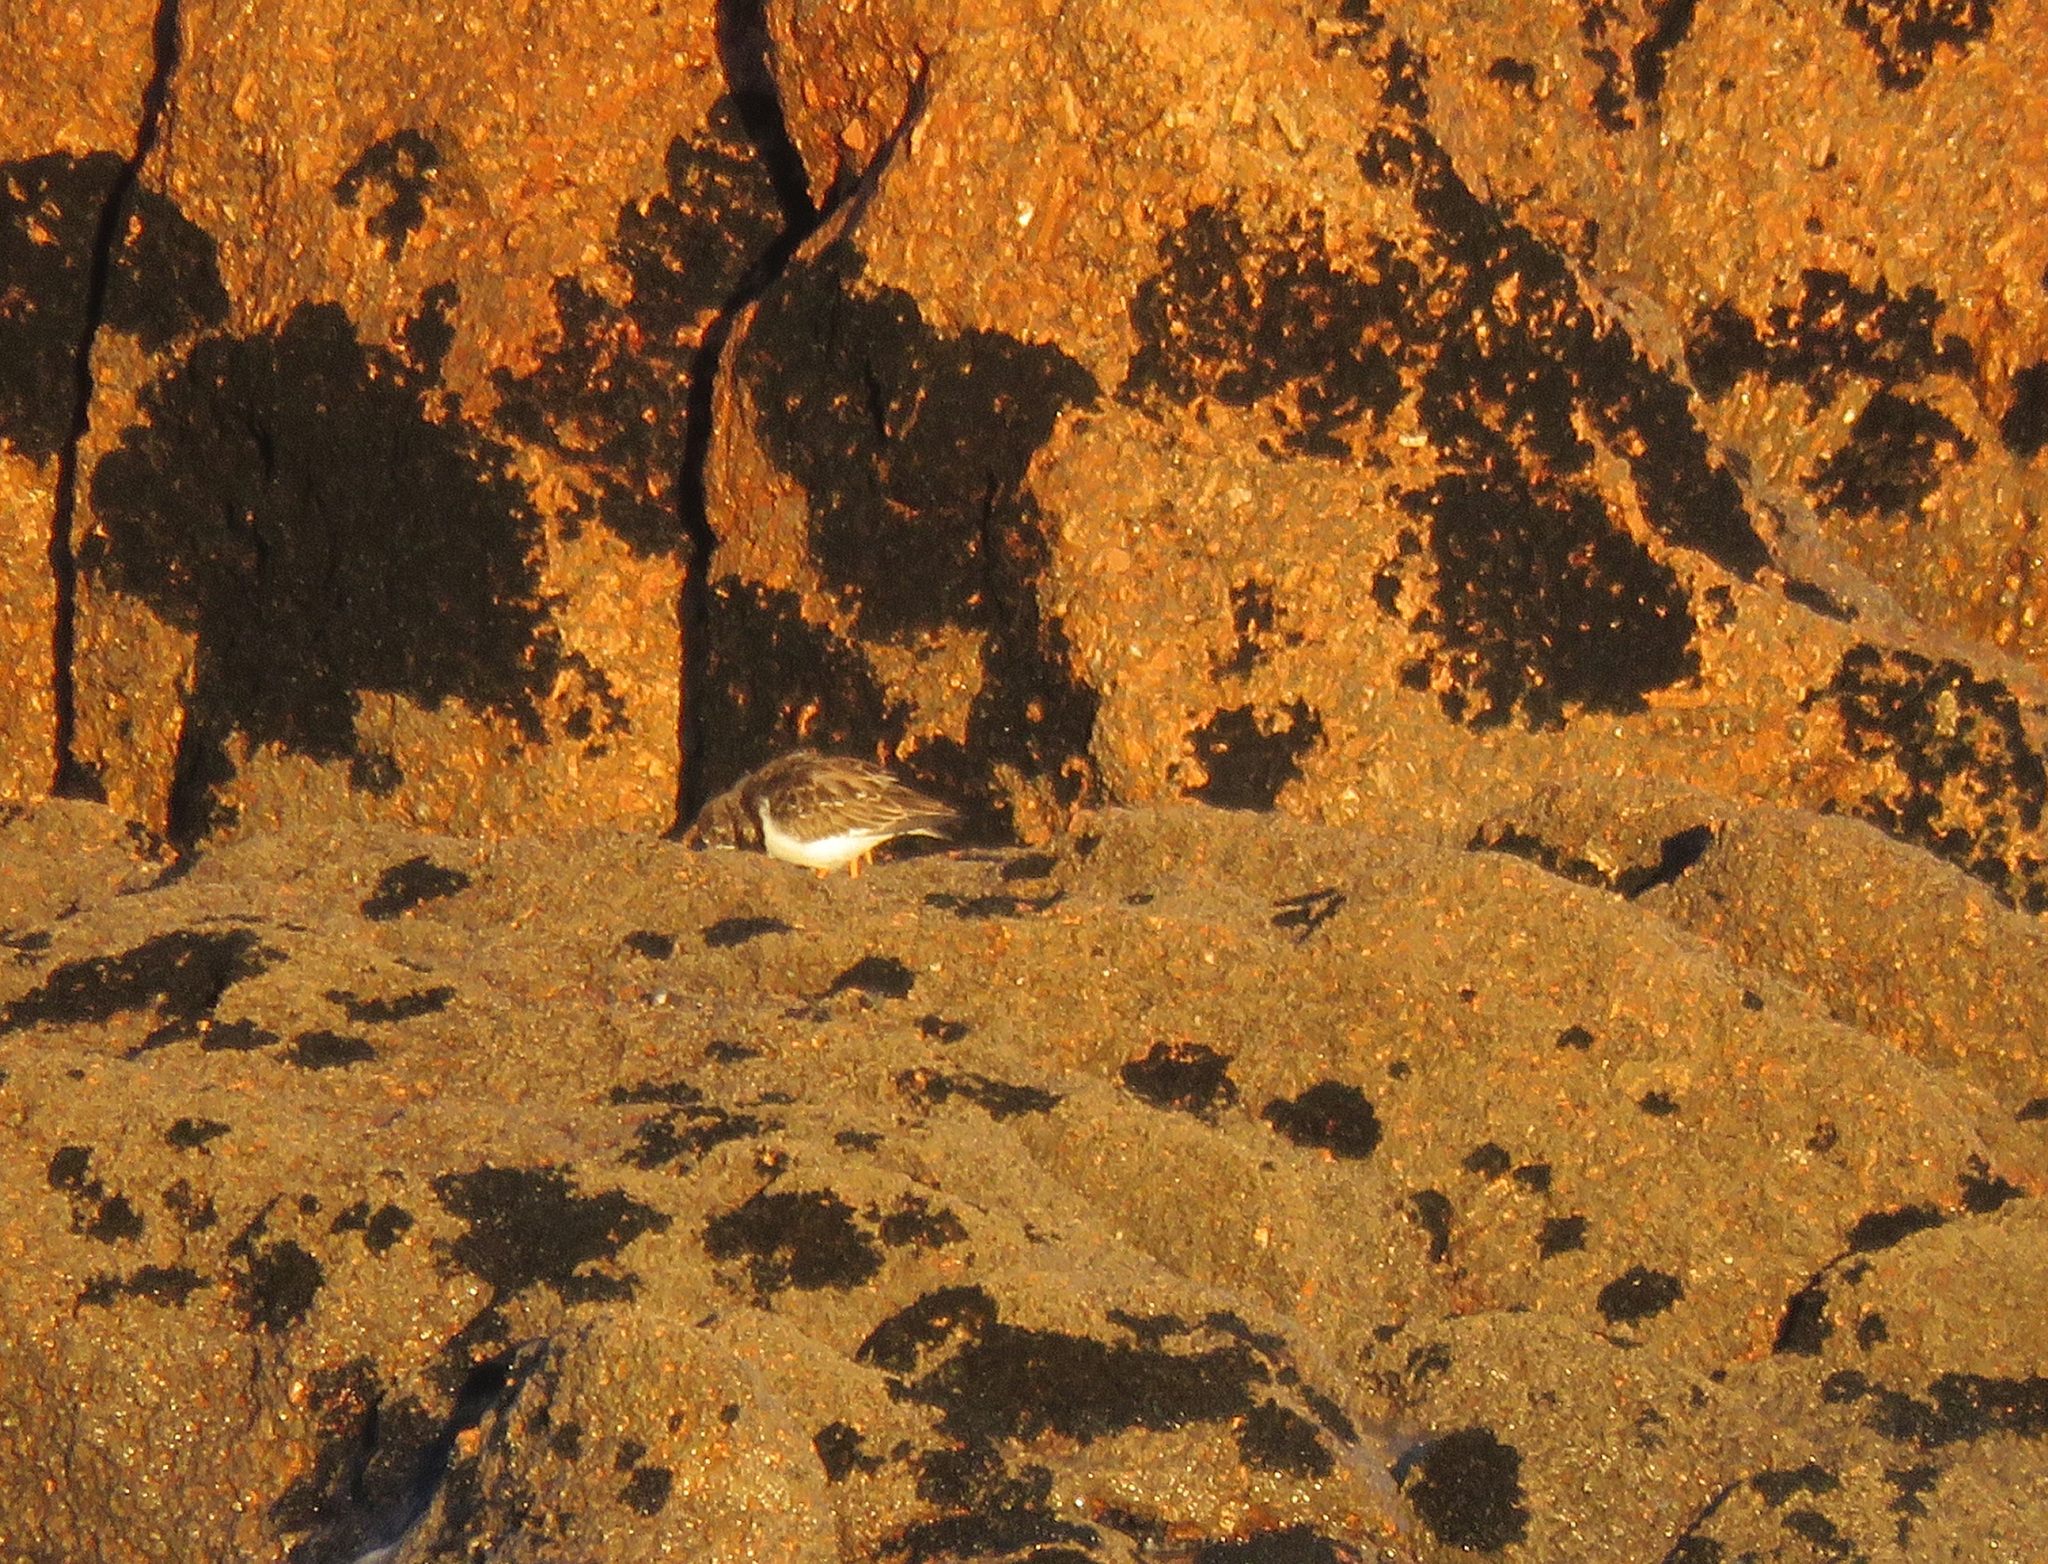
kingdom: Animalia
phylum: Chordata
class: Aves
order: Charadriiformes
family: Scolopacidae
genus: Arenaria
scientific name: Arenaria interpres
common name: Ruddy turnstone
